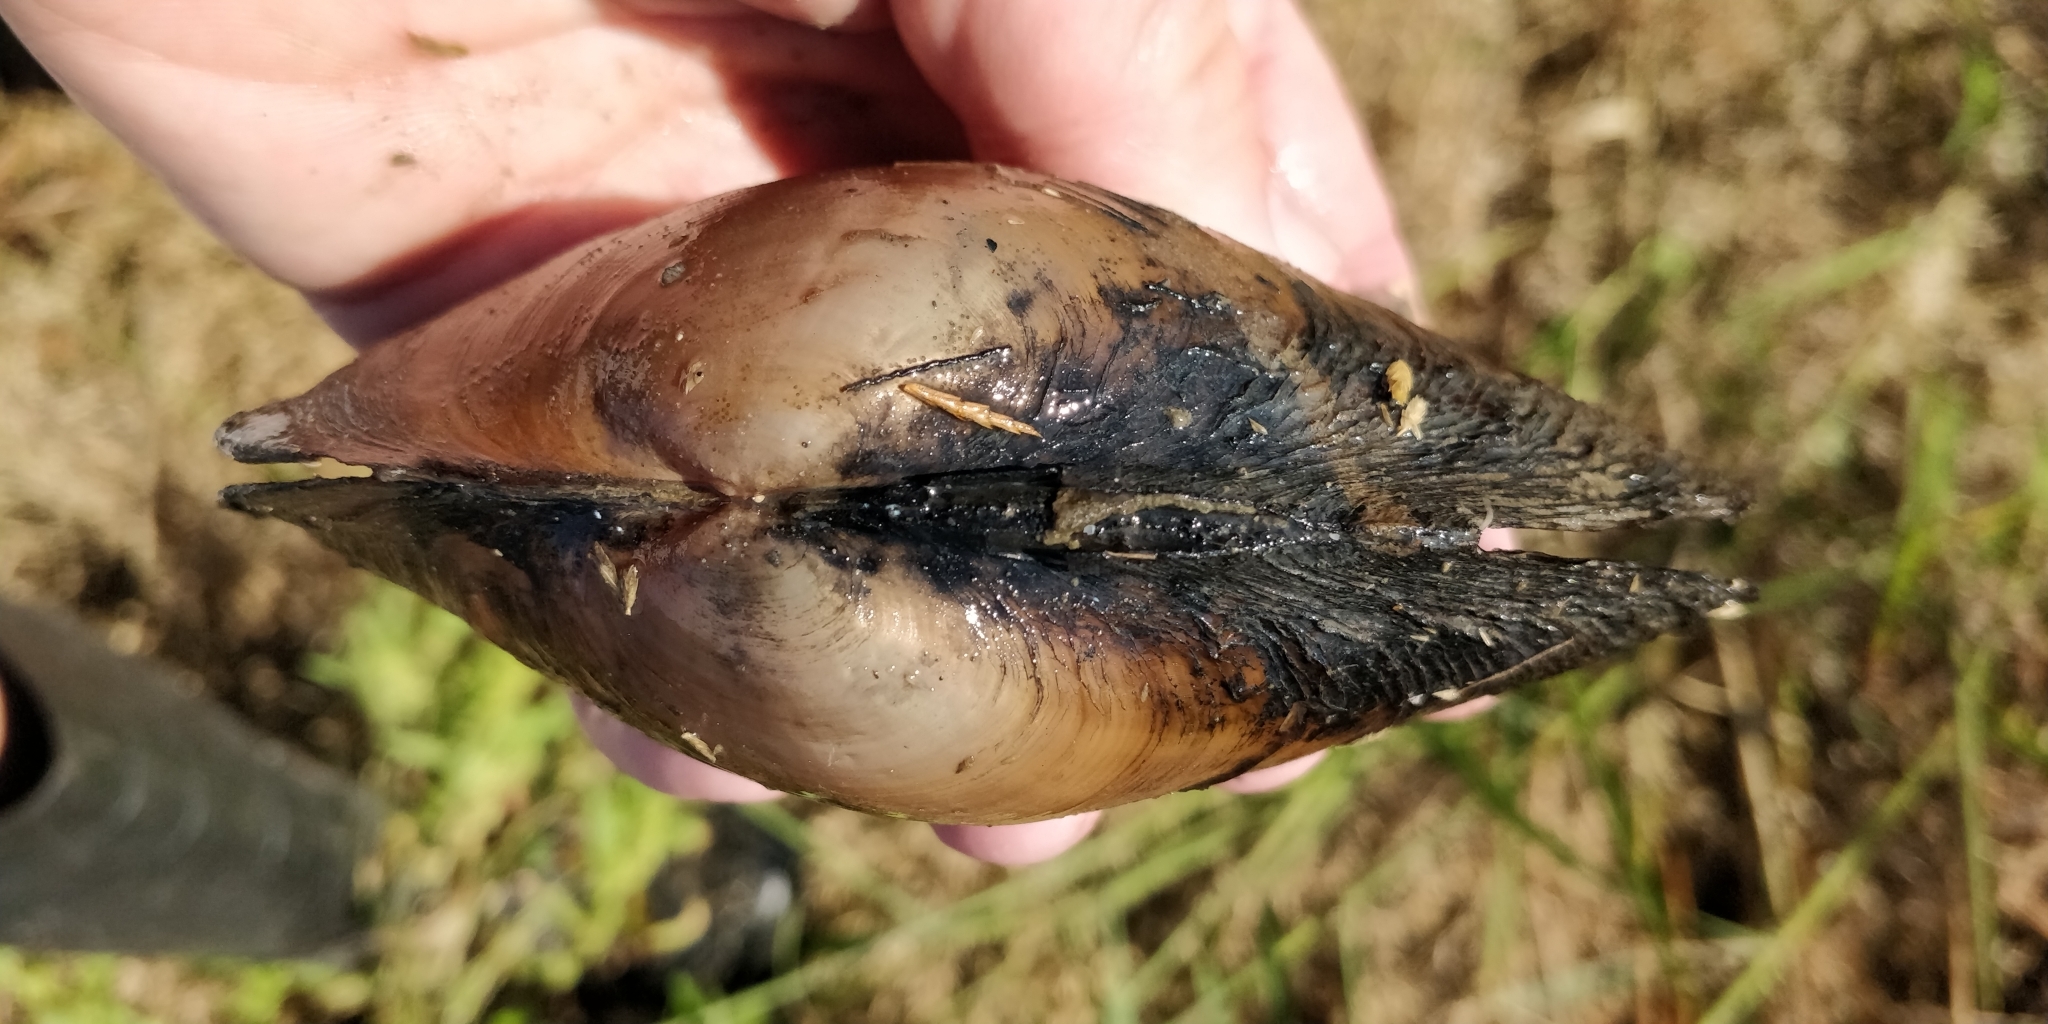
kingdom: Animalia
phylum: Mollusca
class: Bivalvia
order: Unionida
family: Unionidae
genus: Pyganodon
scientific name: Pyganodon grandis
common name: Giant floater
